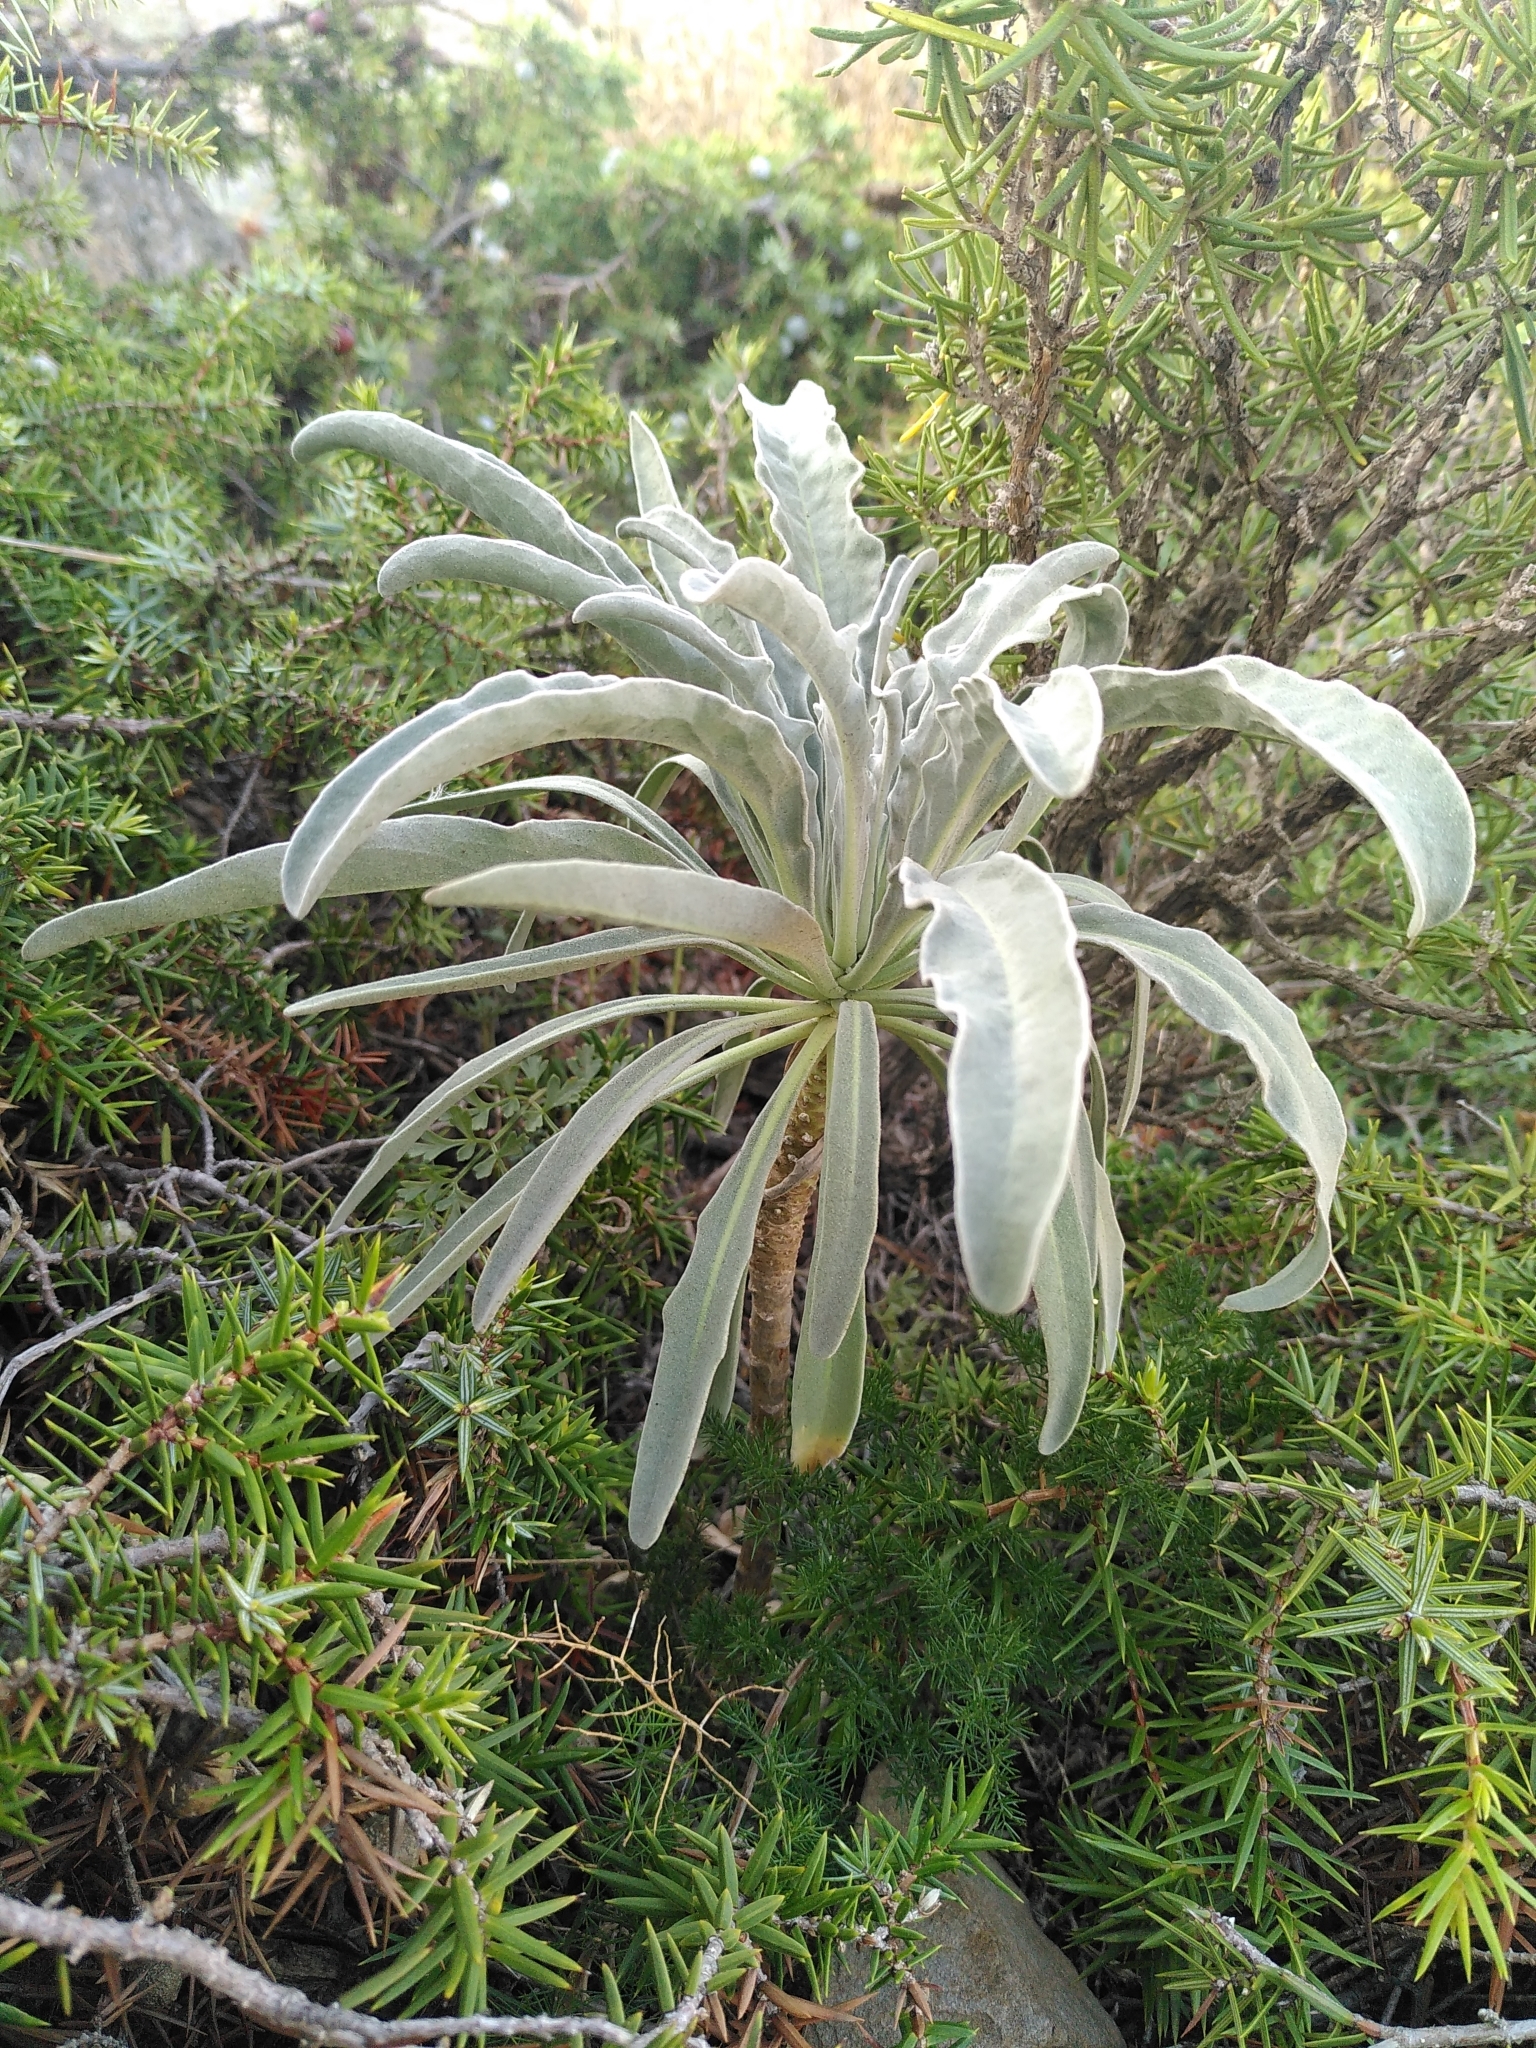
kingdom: Plantae
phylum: Tracheophyta
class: Magnoliopsida
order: Brassicales
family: Brassicaceae
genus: Matthiola
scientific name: Matthiola incana
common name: Hoary stock
